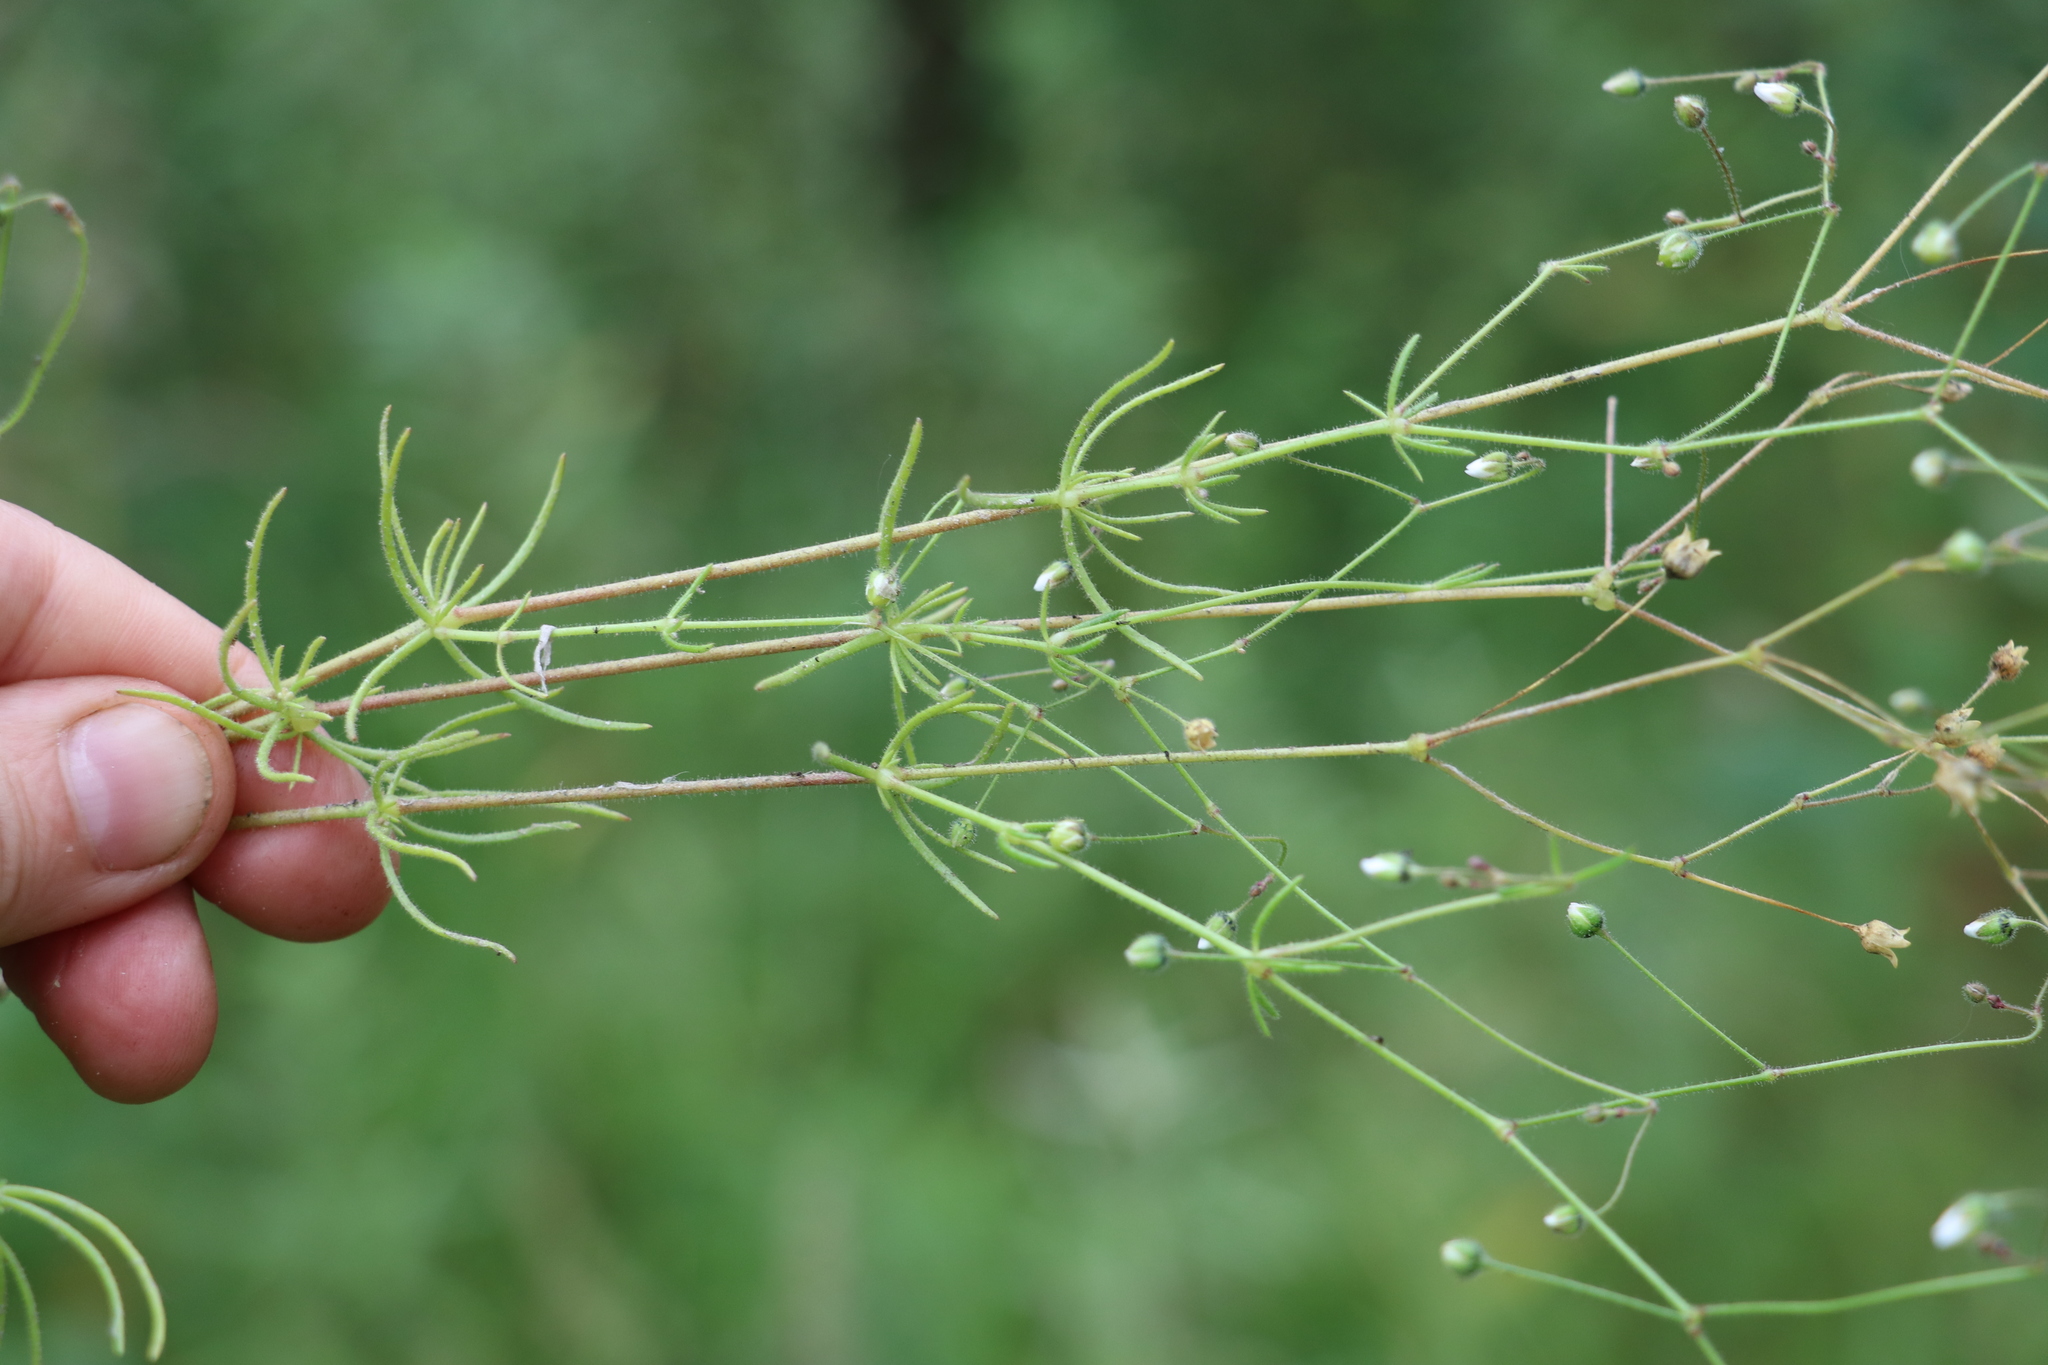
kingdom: Plantae
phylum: Tracheophyta
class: Magnoliopsida
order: Caryophyllales
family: Caryophyllaceae
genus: Spergula
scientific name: Spergula arvensis
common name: Corn spurrey
